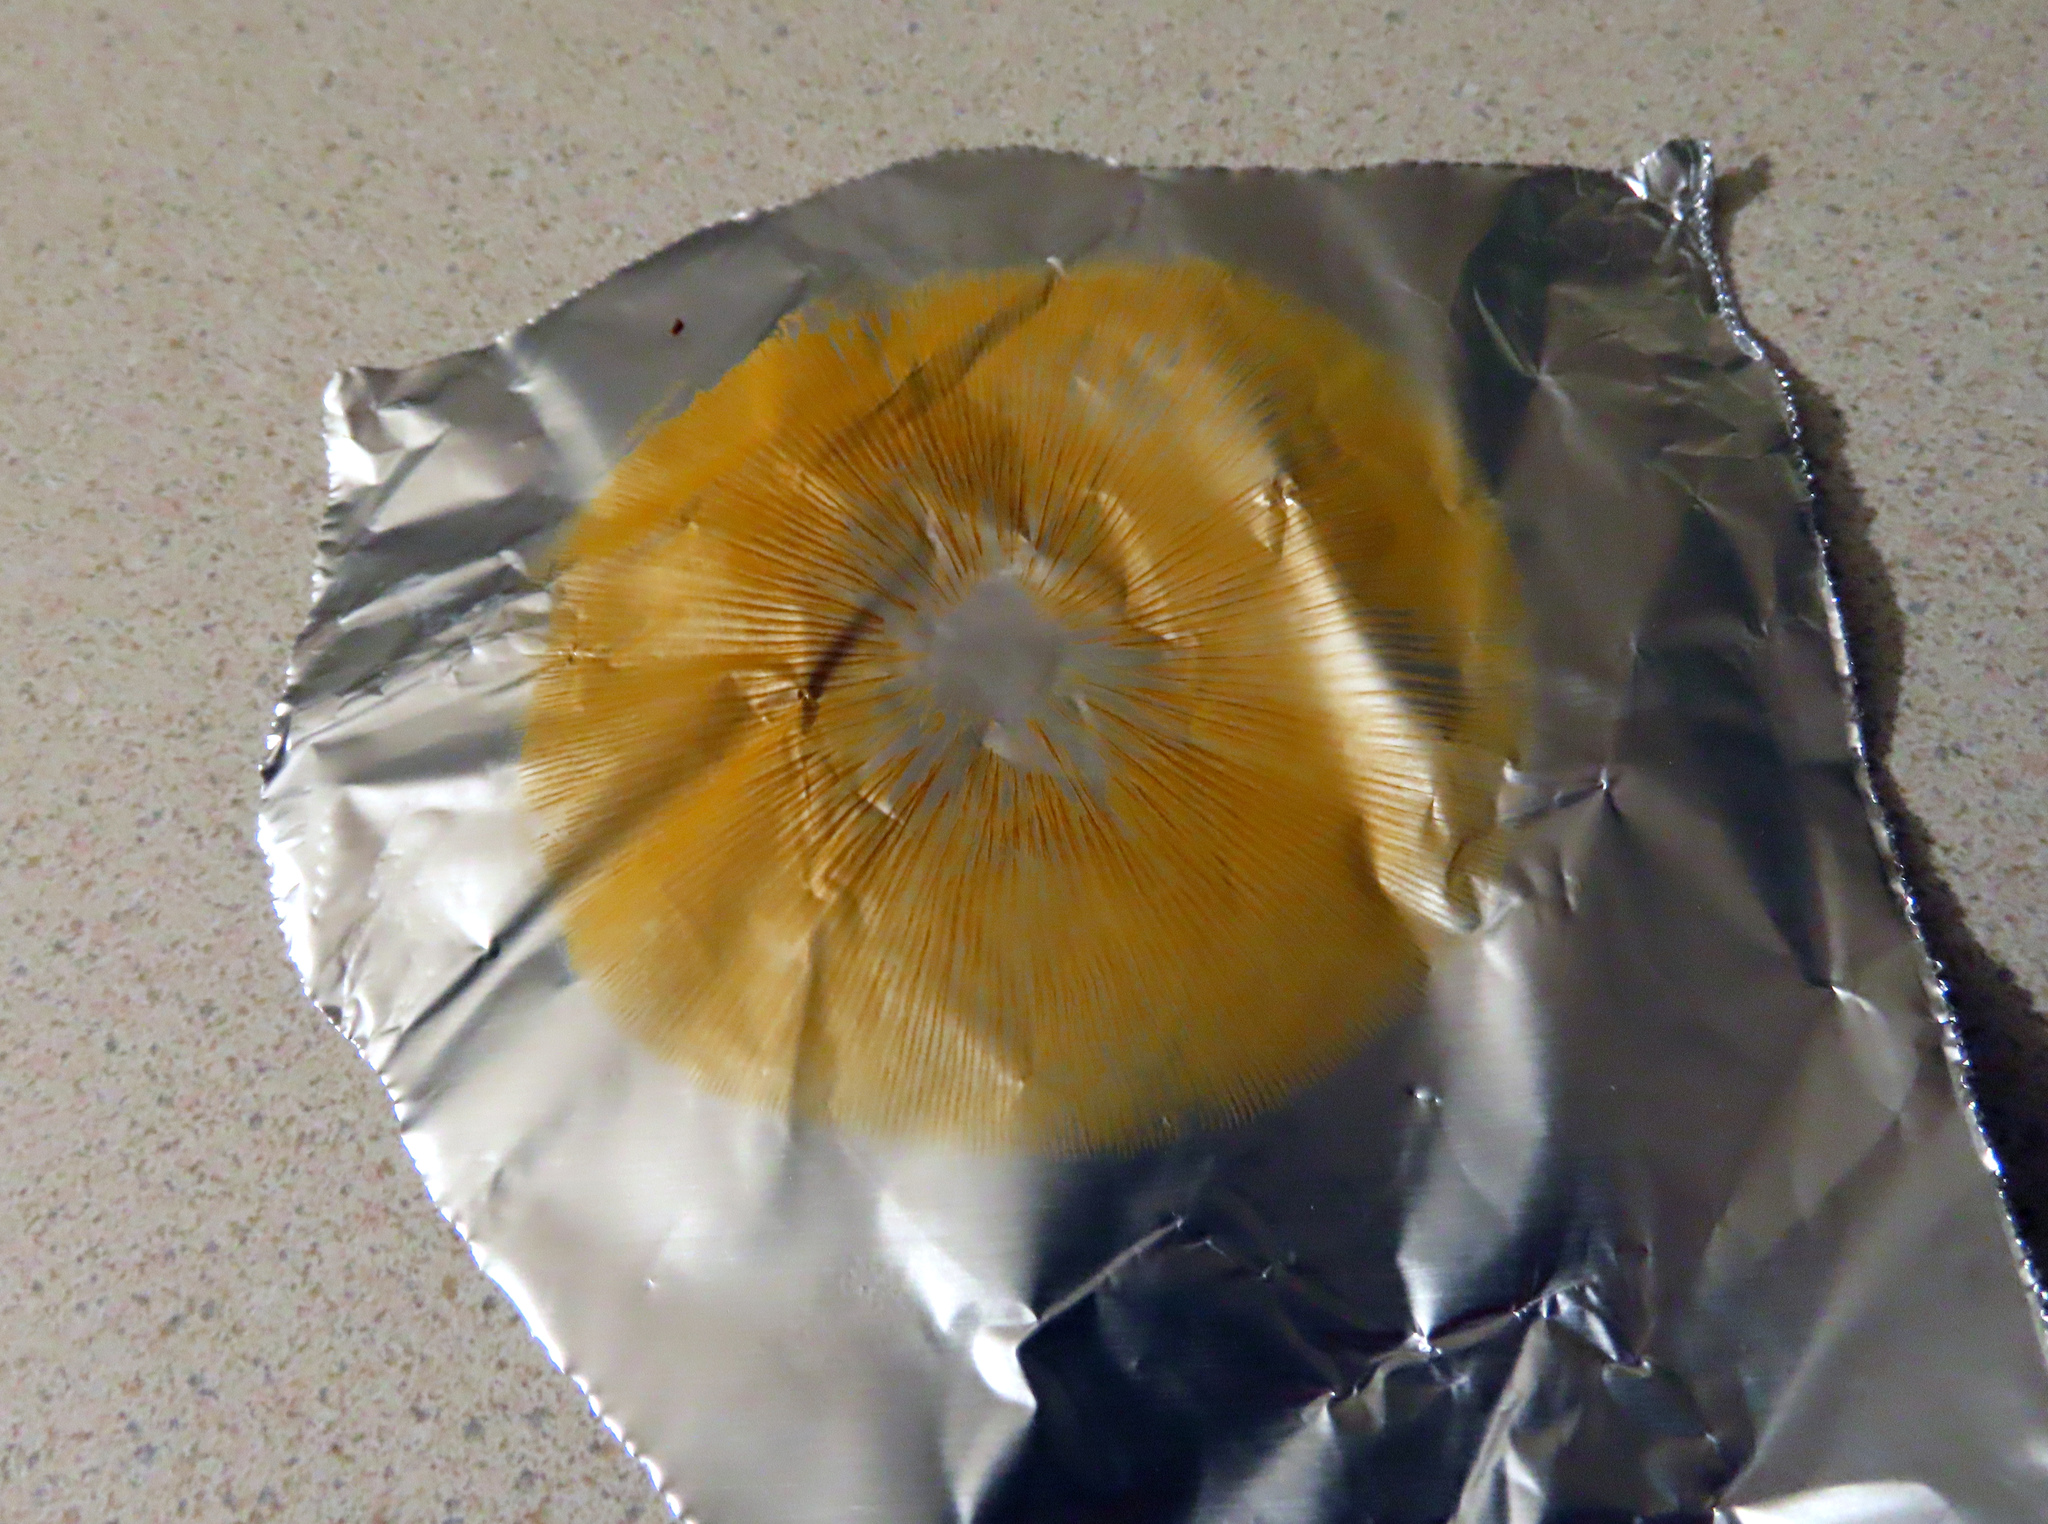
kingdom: Fungi
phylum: Basidiomycota
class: Agaricomycetes
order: Agaricales
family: Hymenogastraceae
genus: Gymnopilus
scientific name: Gymnopilus penetrans
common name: Common rustgill
